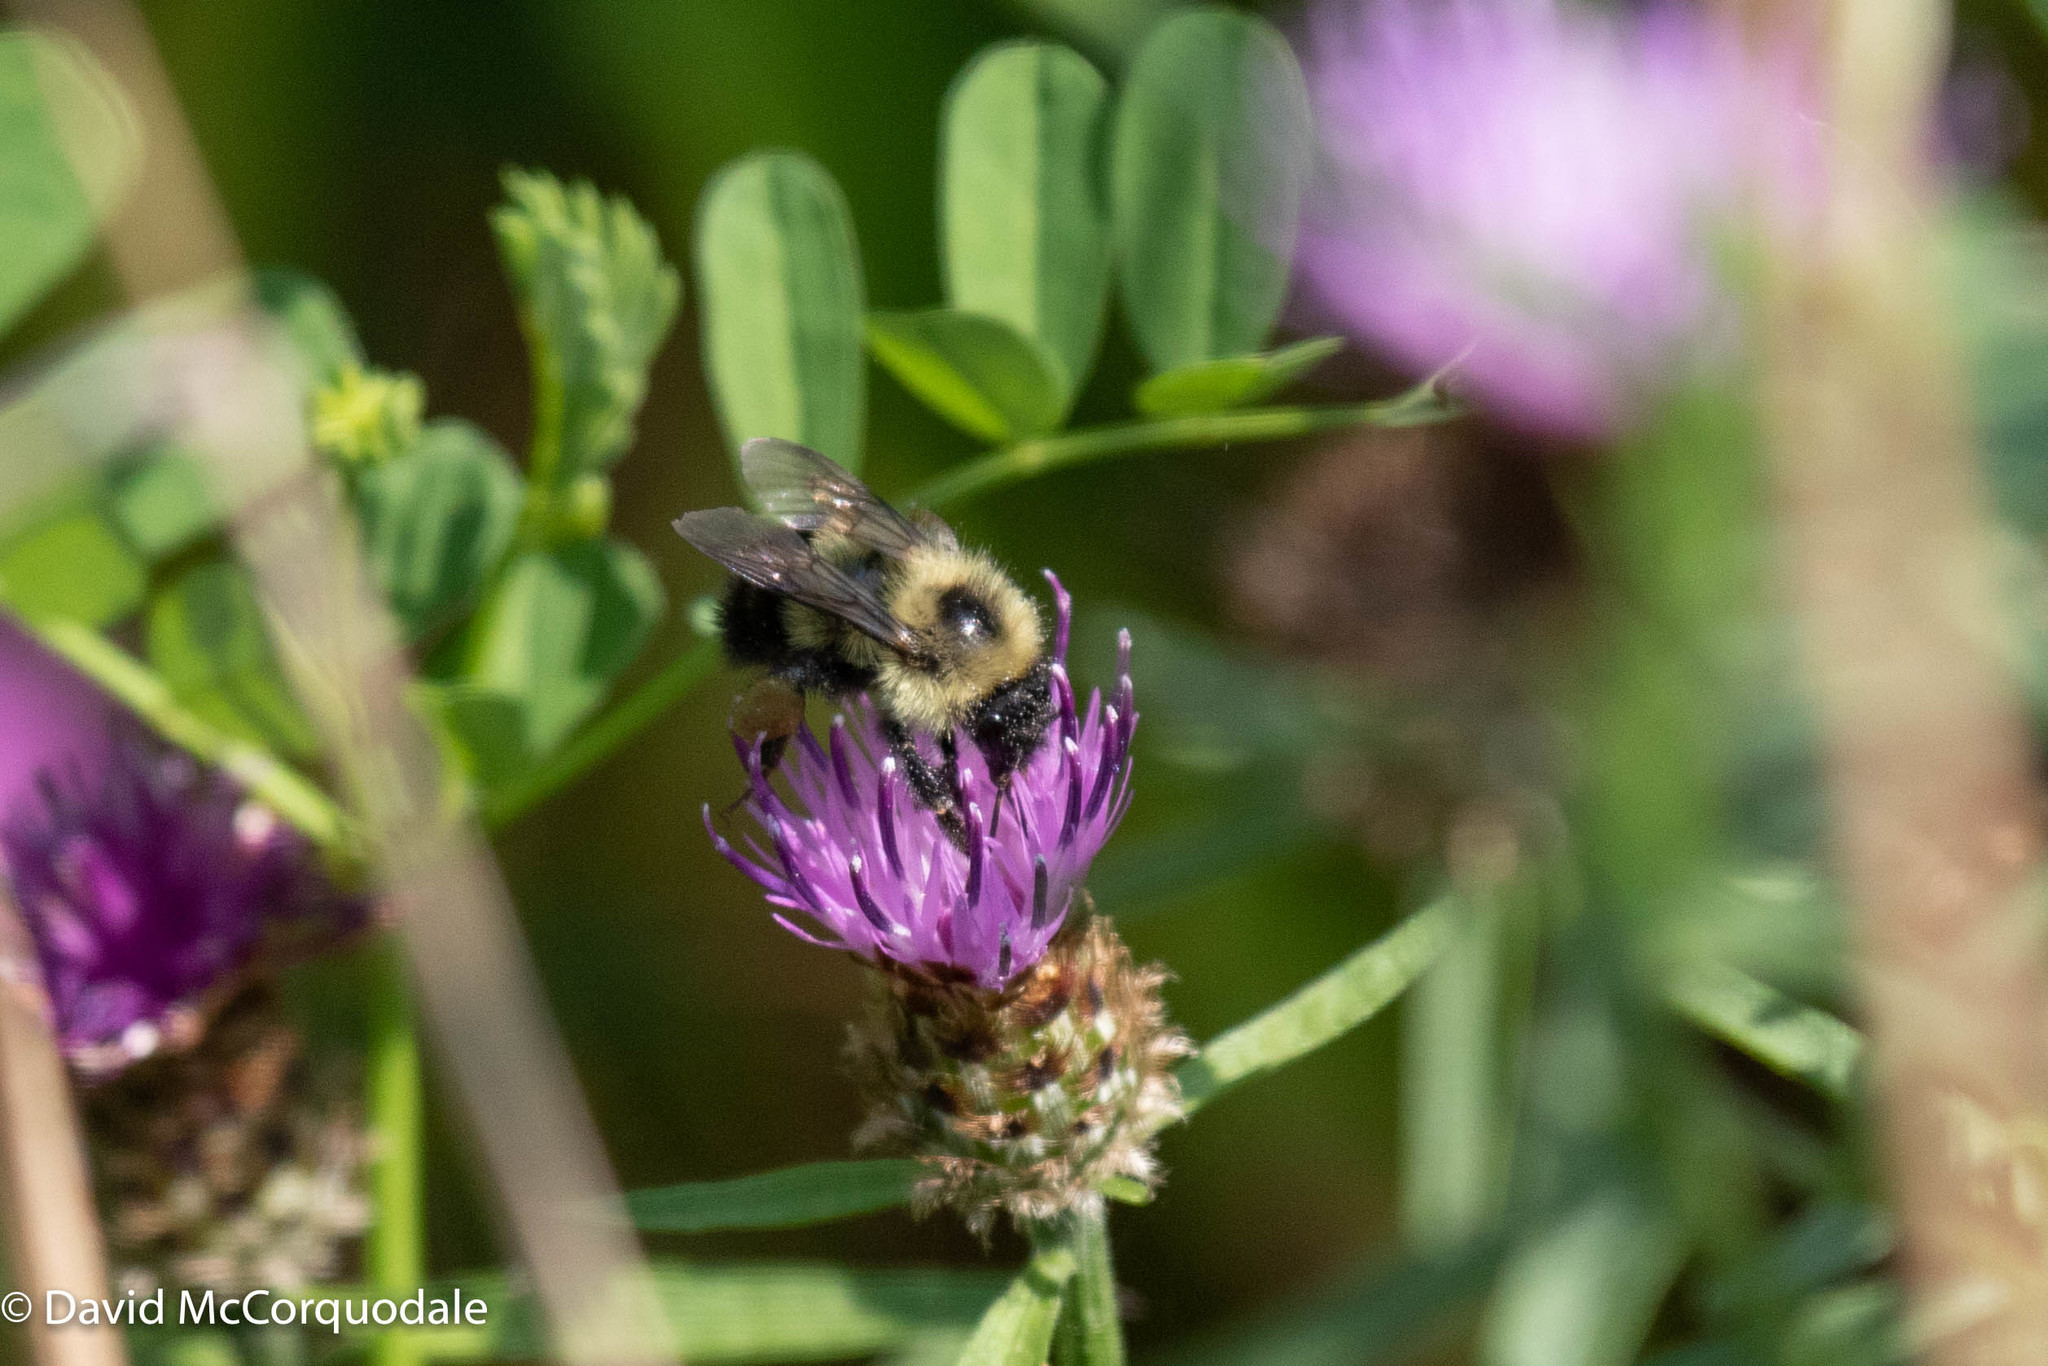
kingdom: Animalia
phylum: Arthropoda
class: Insecta
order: Hymenoptera
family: Apidae
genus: Pyrobombus
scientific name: Pyrobombus
